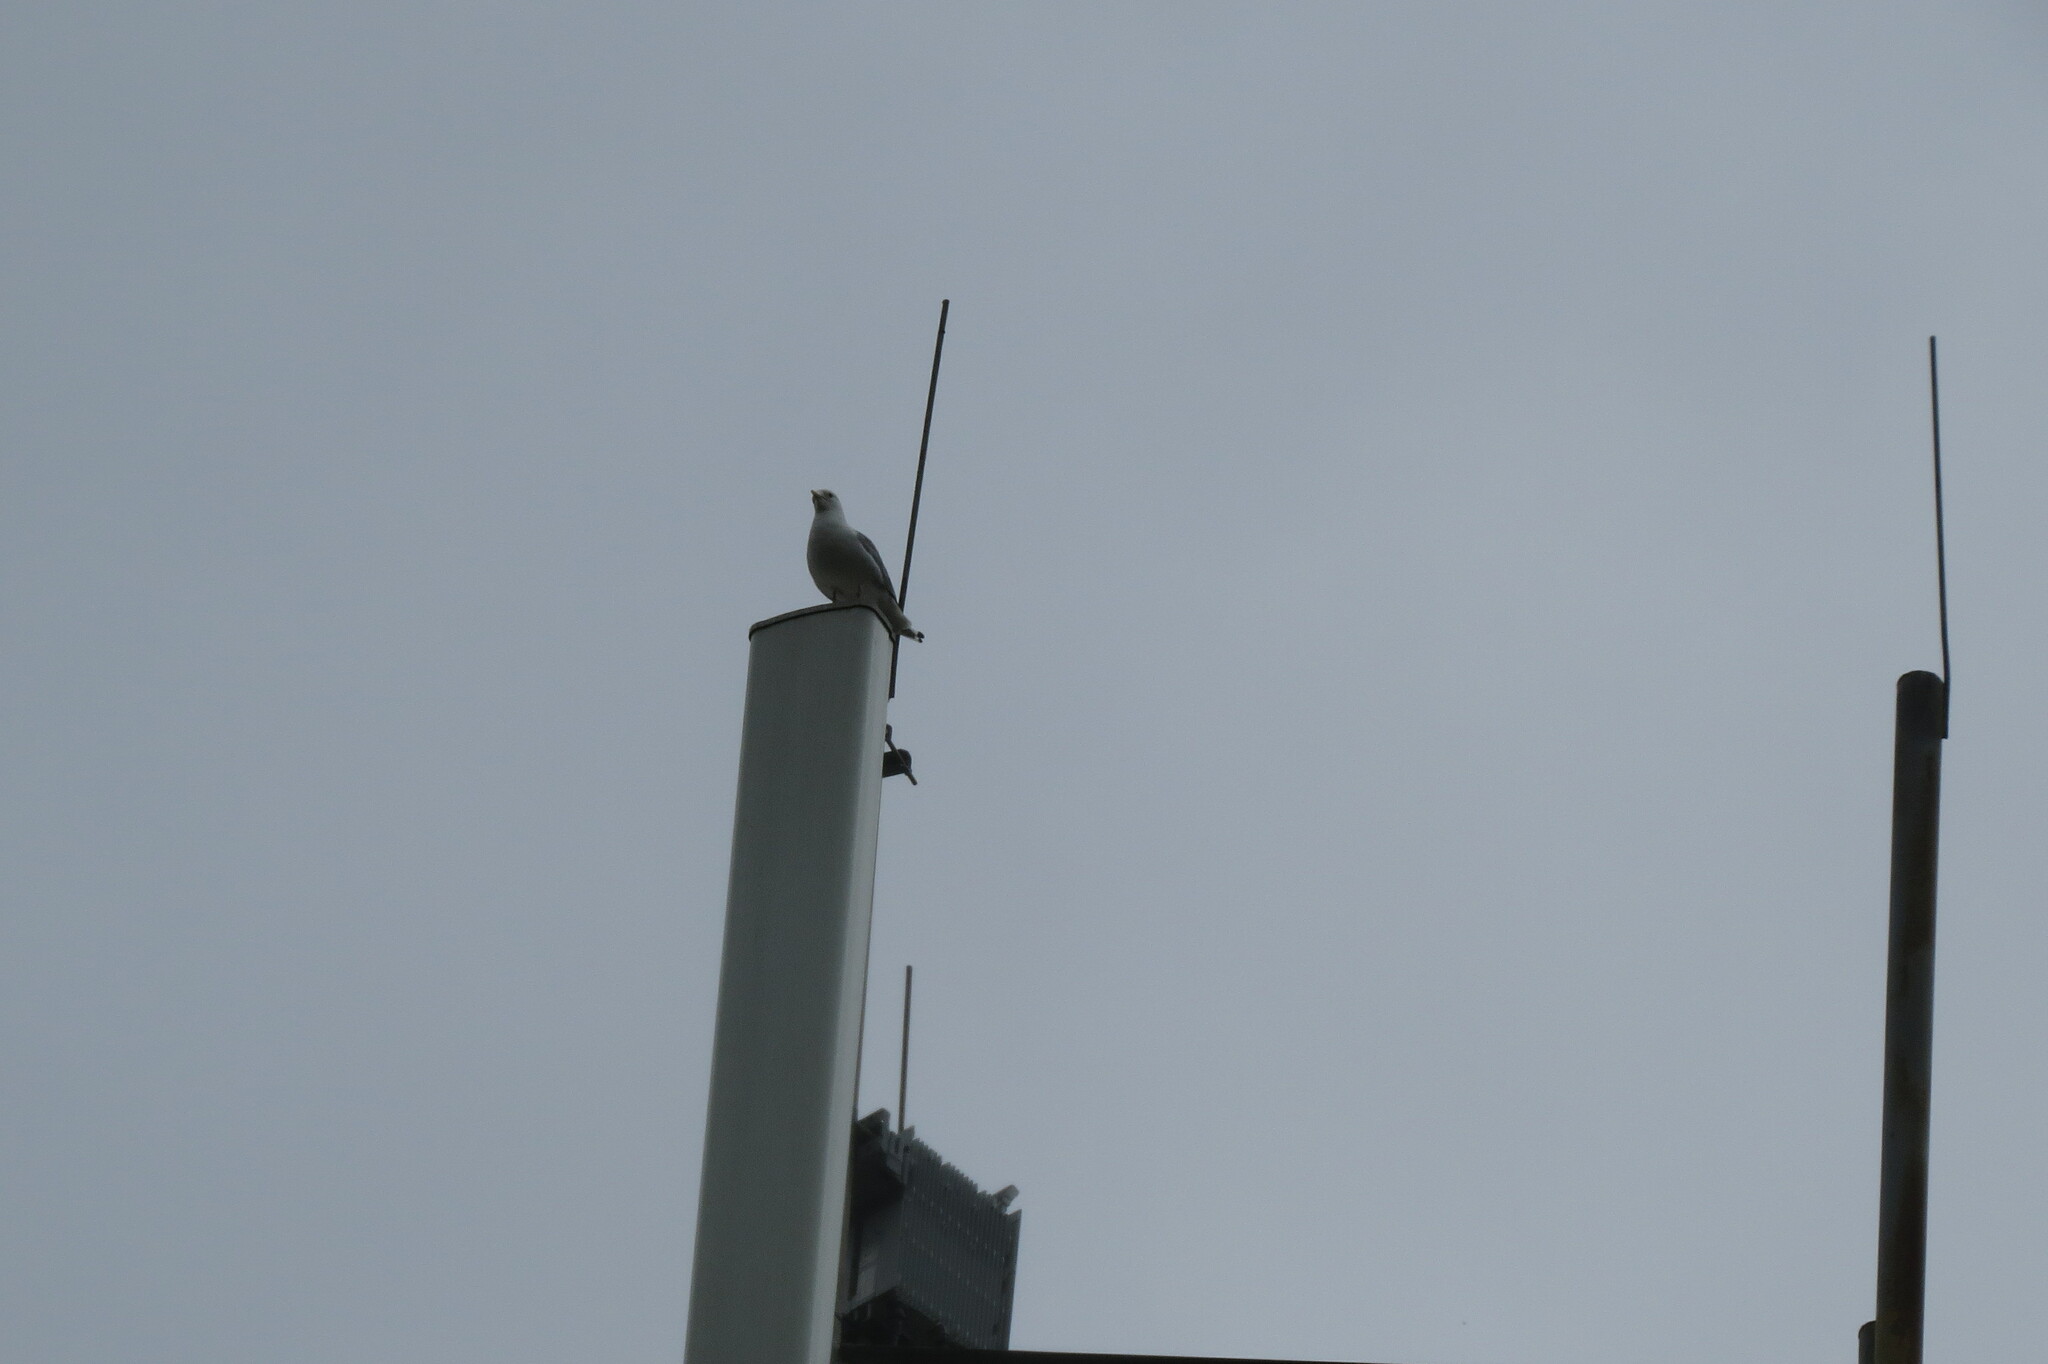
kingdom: Animalia
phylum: Chordata
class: Aves
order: Charadriiformes
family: Laridae
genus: Larus
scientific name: Larus canus
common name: Mew gull
